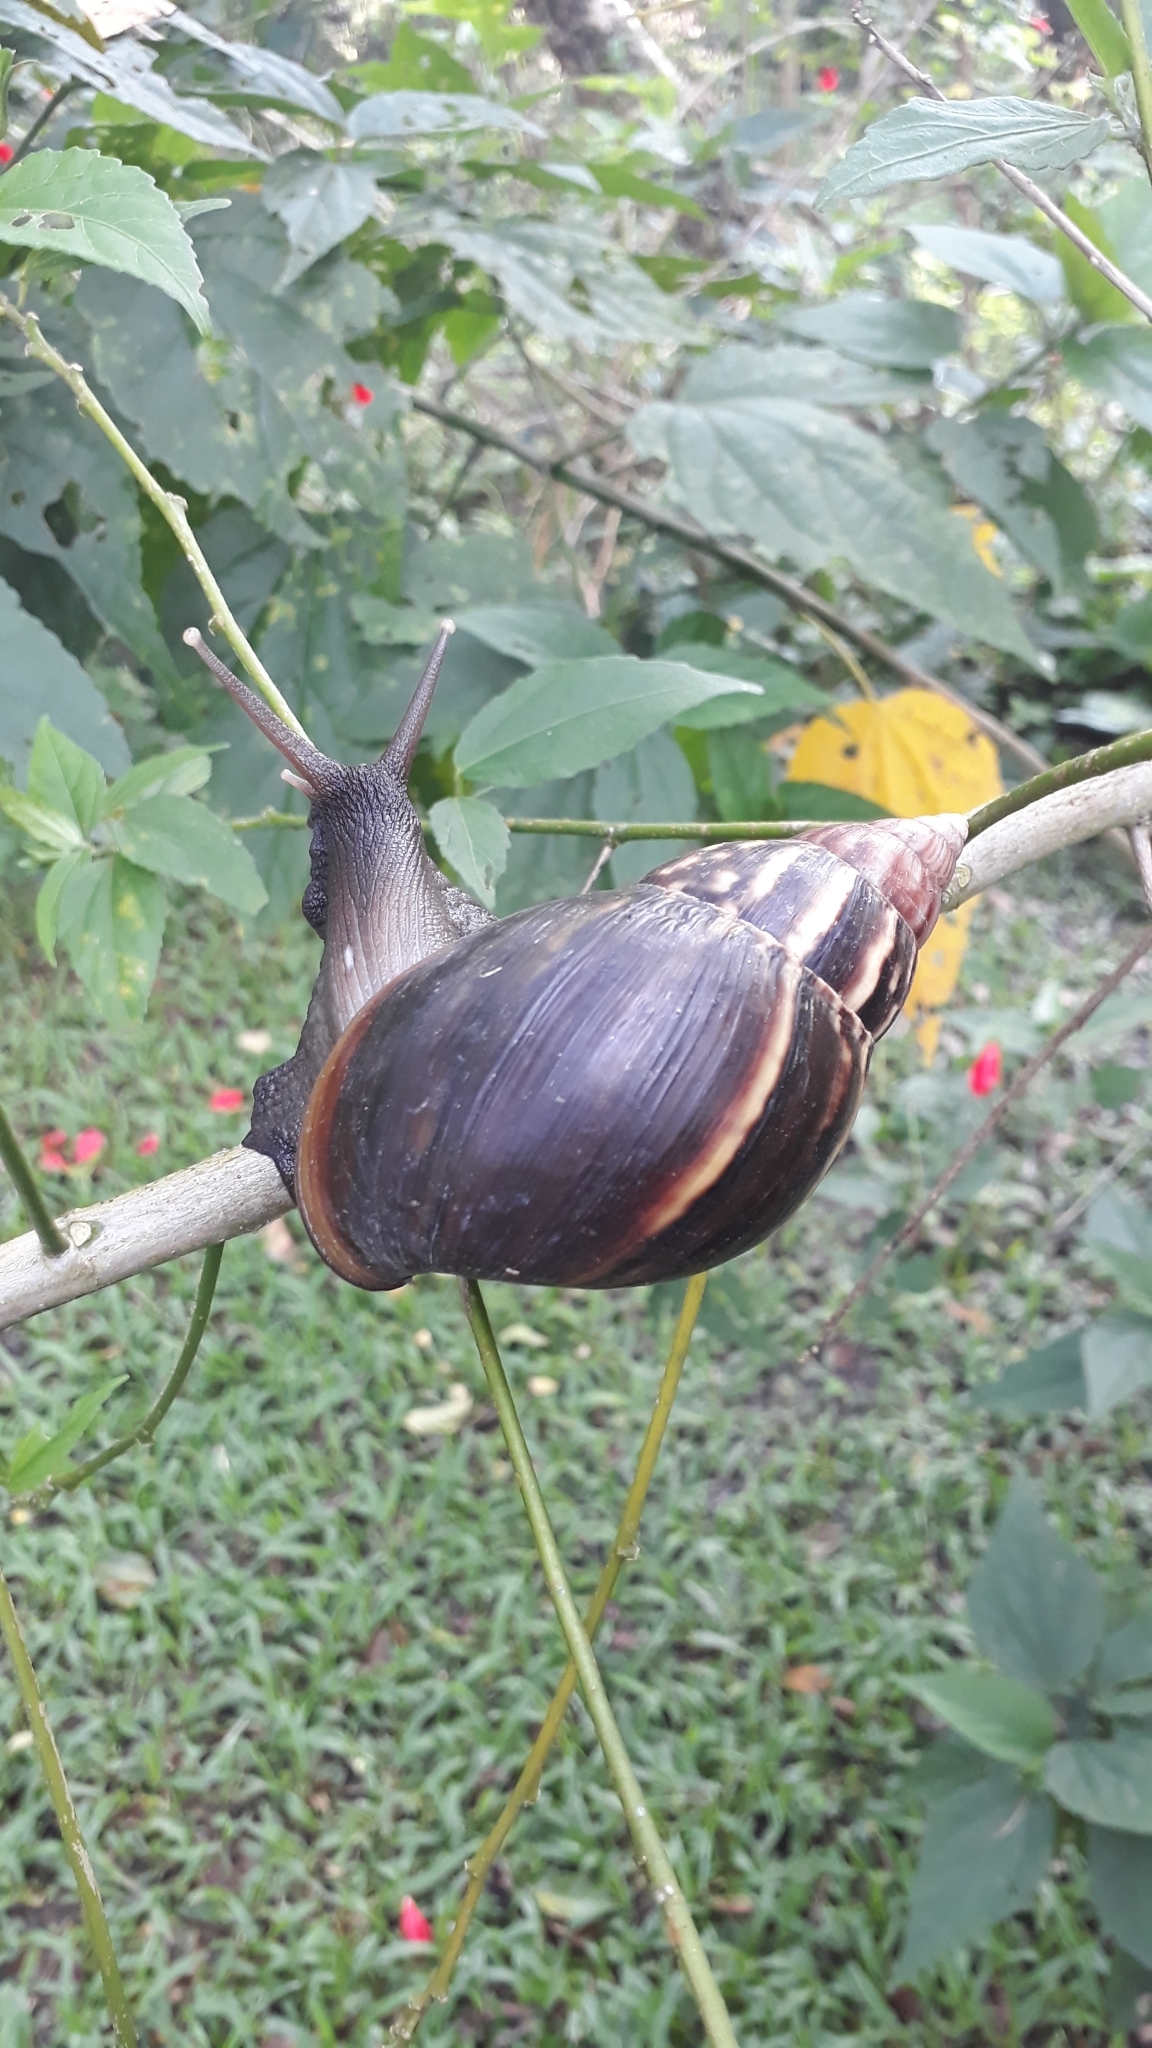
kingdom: Animalia
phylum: Mollusca
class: Gastropoda
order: Stylommatophora
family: Achatinidae
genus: Lissachatina
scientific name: Lissachatina fulica
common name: Giant african snail
